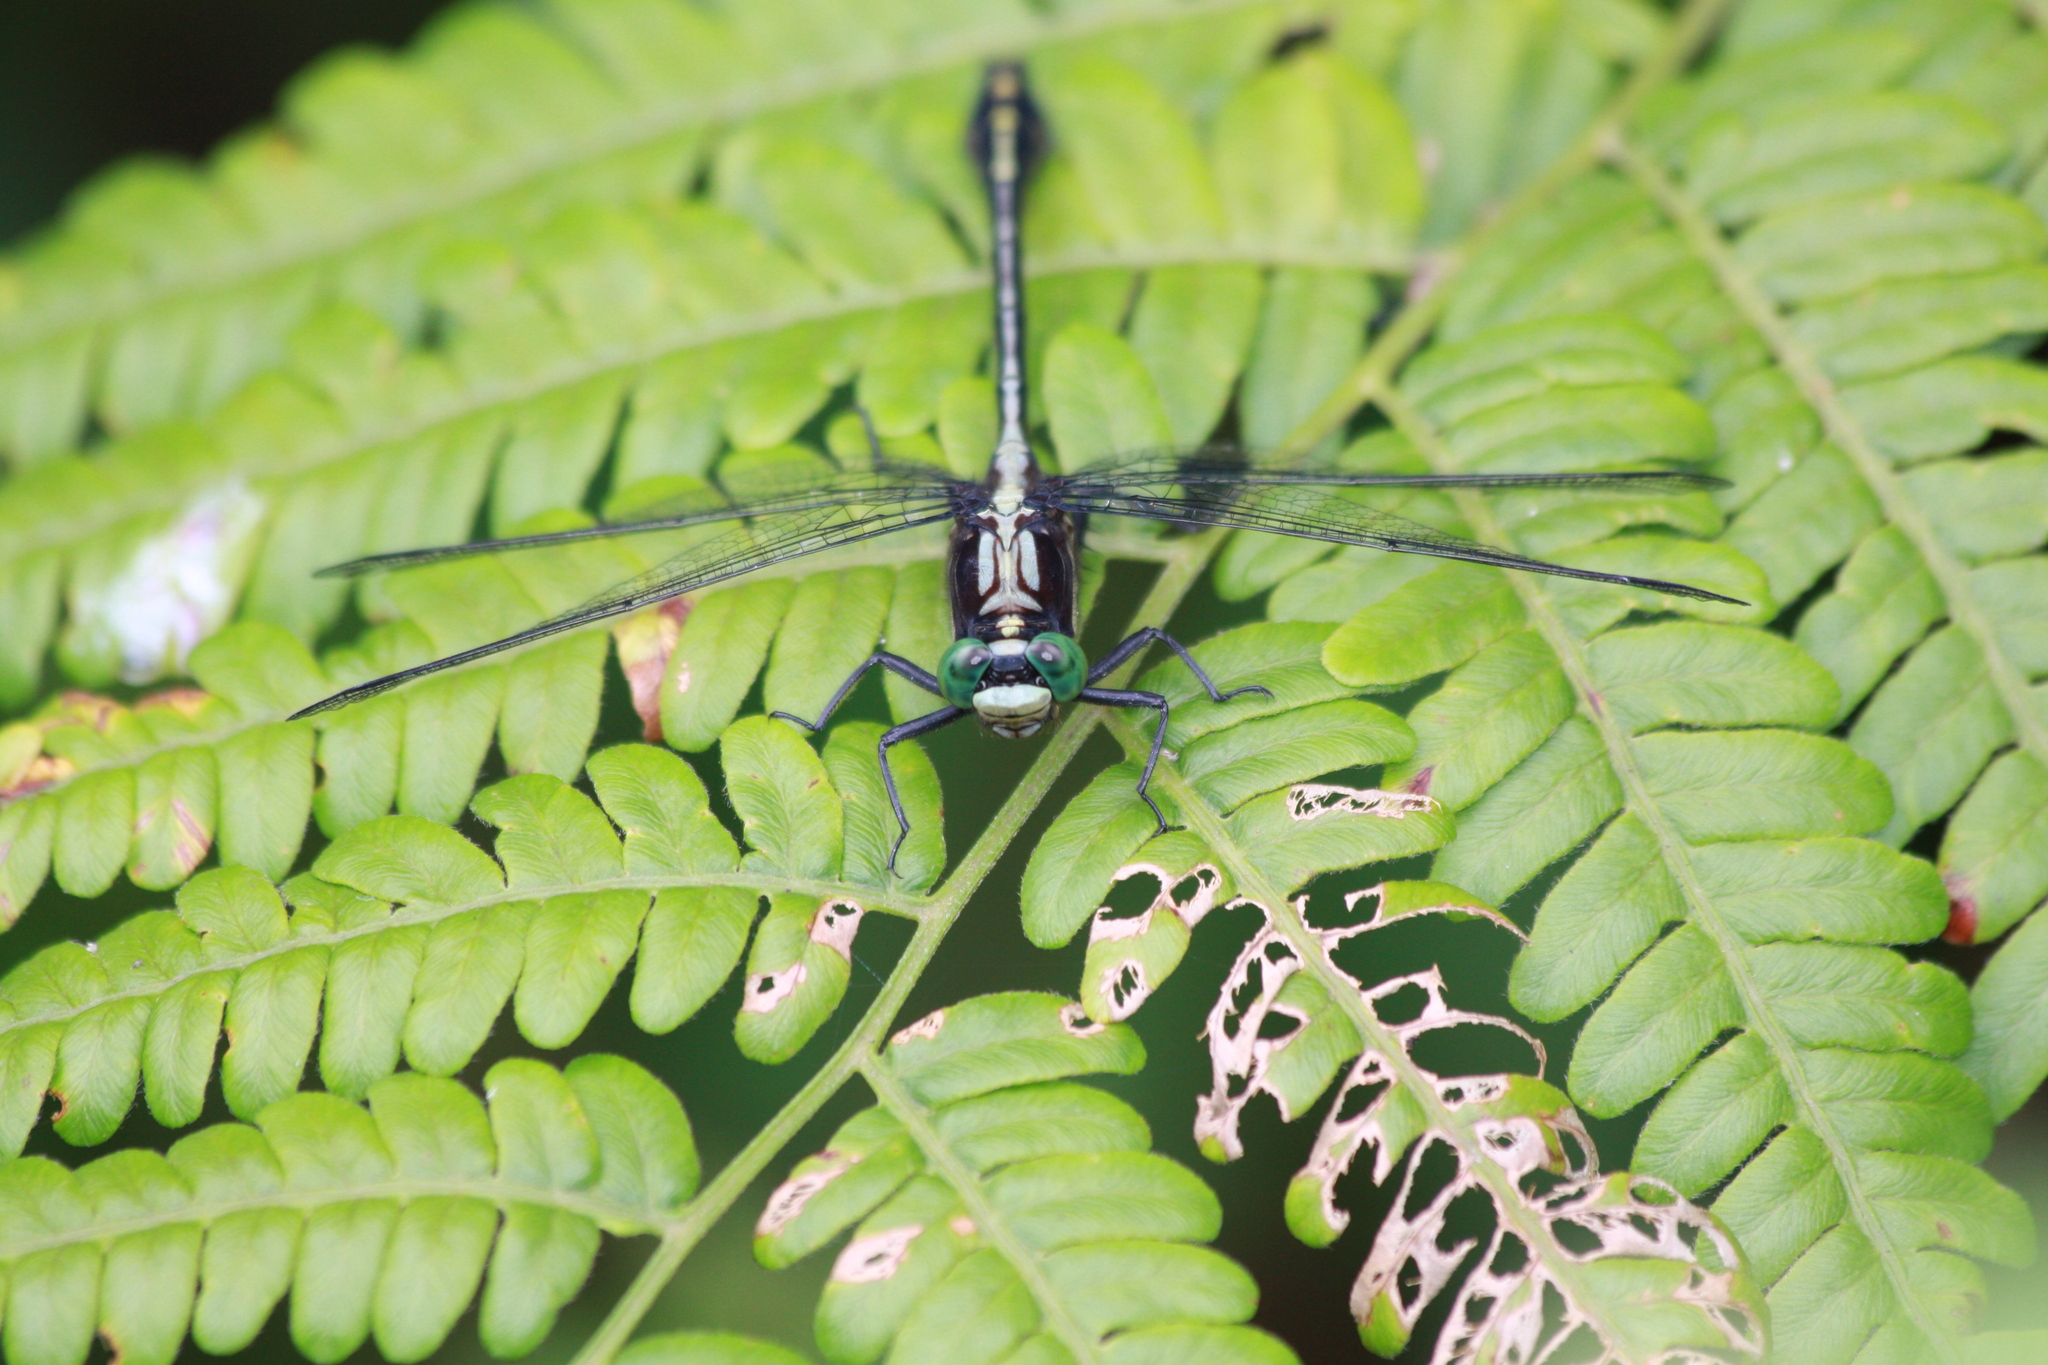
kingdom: Animalia
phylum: Arthropoda
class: Insecta
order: Odonata
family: Gomphidae
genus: Dromogomphus
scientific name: Dromogomphus spinosus
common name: Black-shouldered spinyleg
